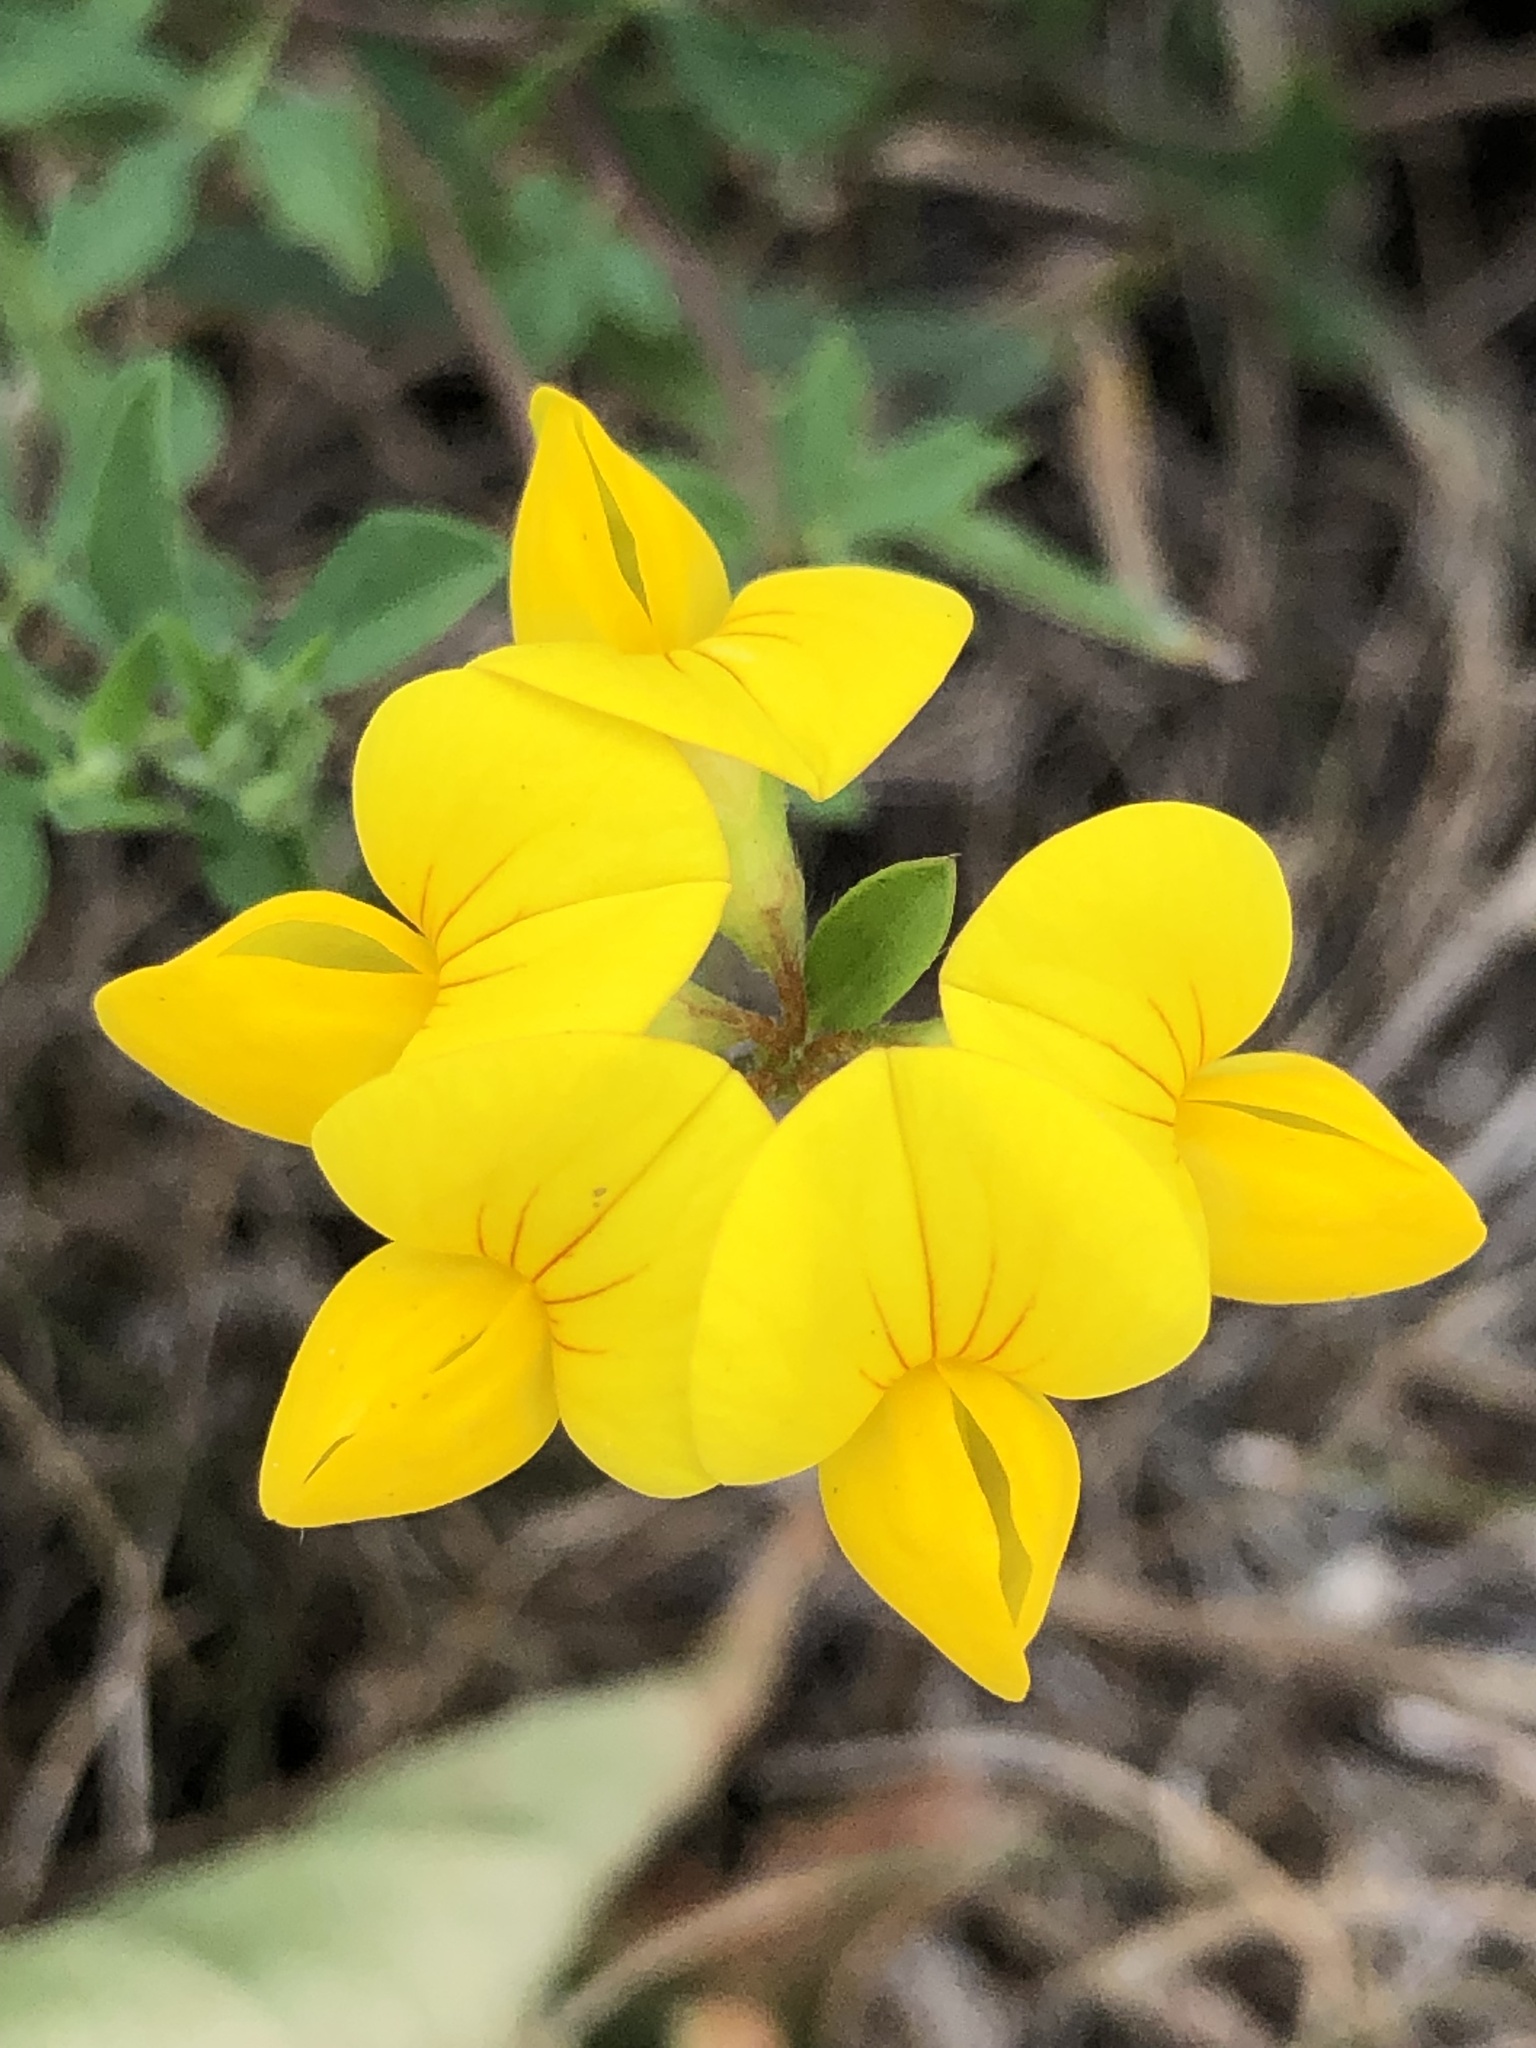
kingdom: Plantae
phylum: Tracheophyta
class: Magnoliopsida
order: Fabales
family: Fabaceae
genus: Lotus
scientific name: Lotus corniculatus
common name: Common bird's-foot-trefoil
